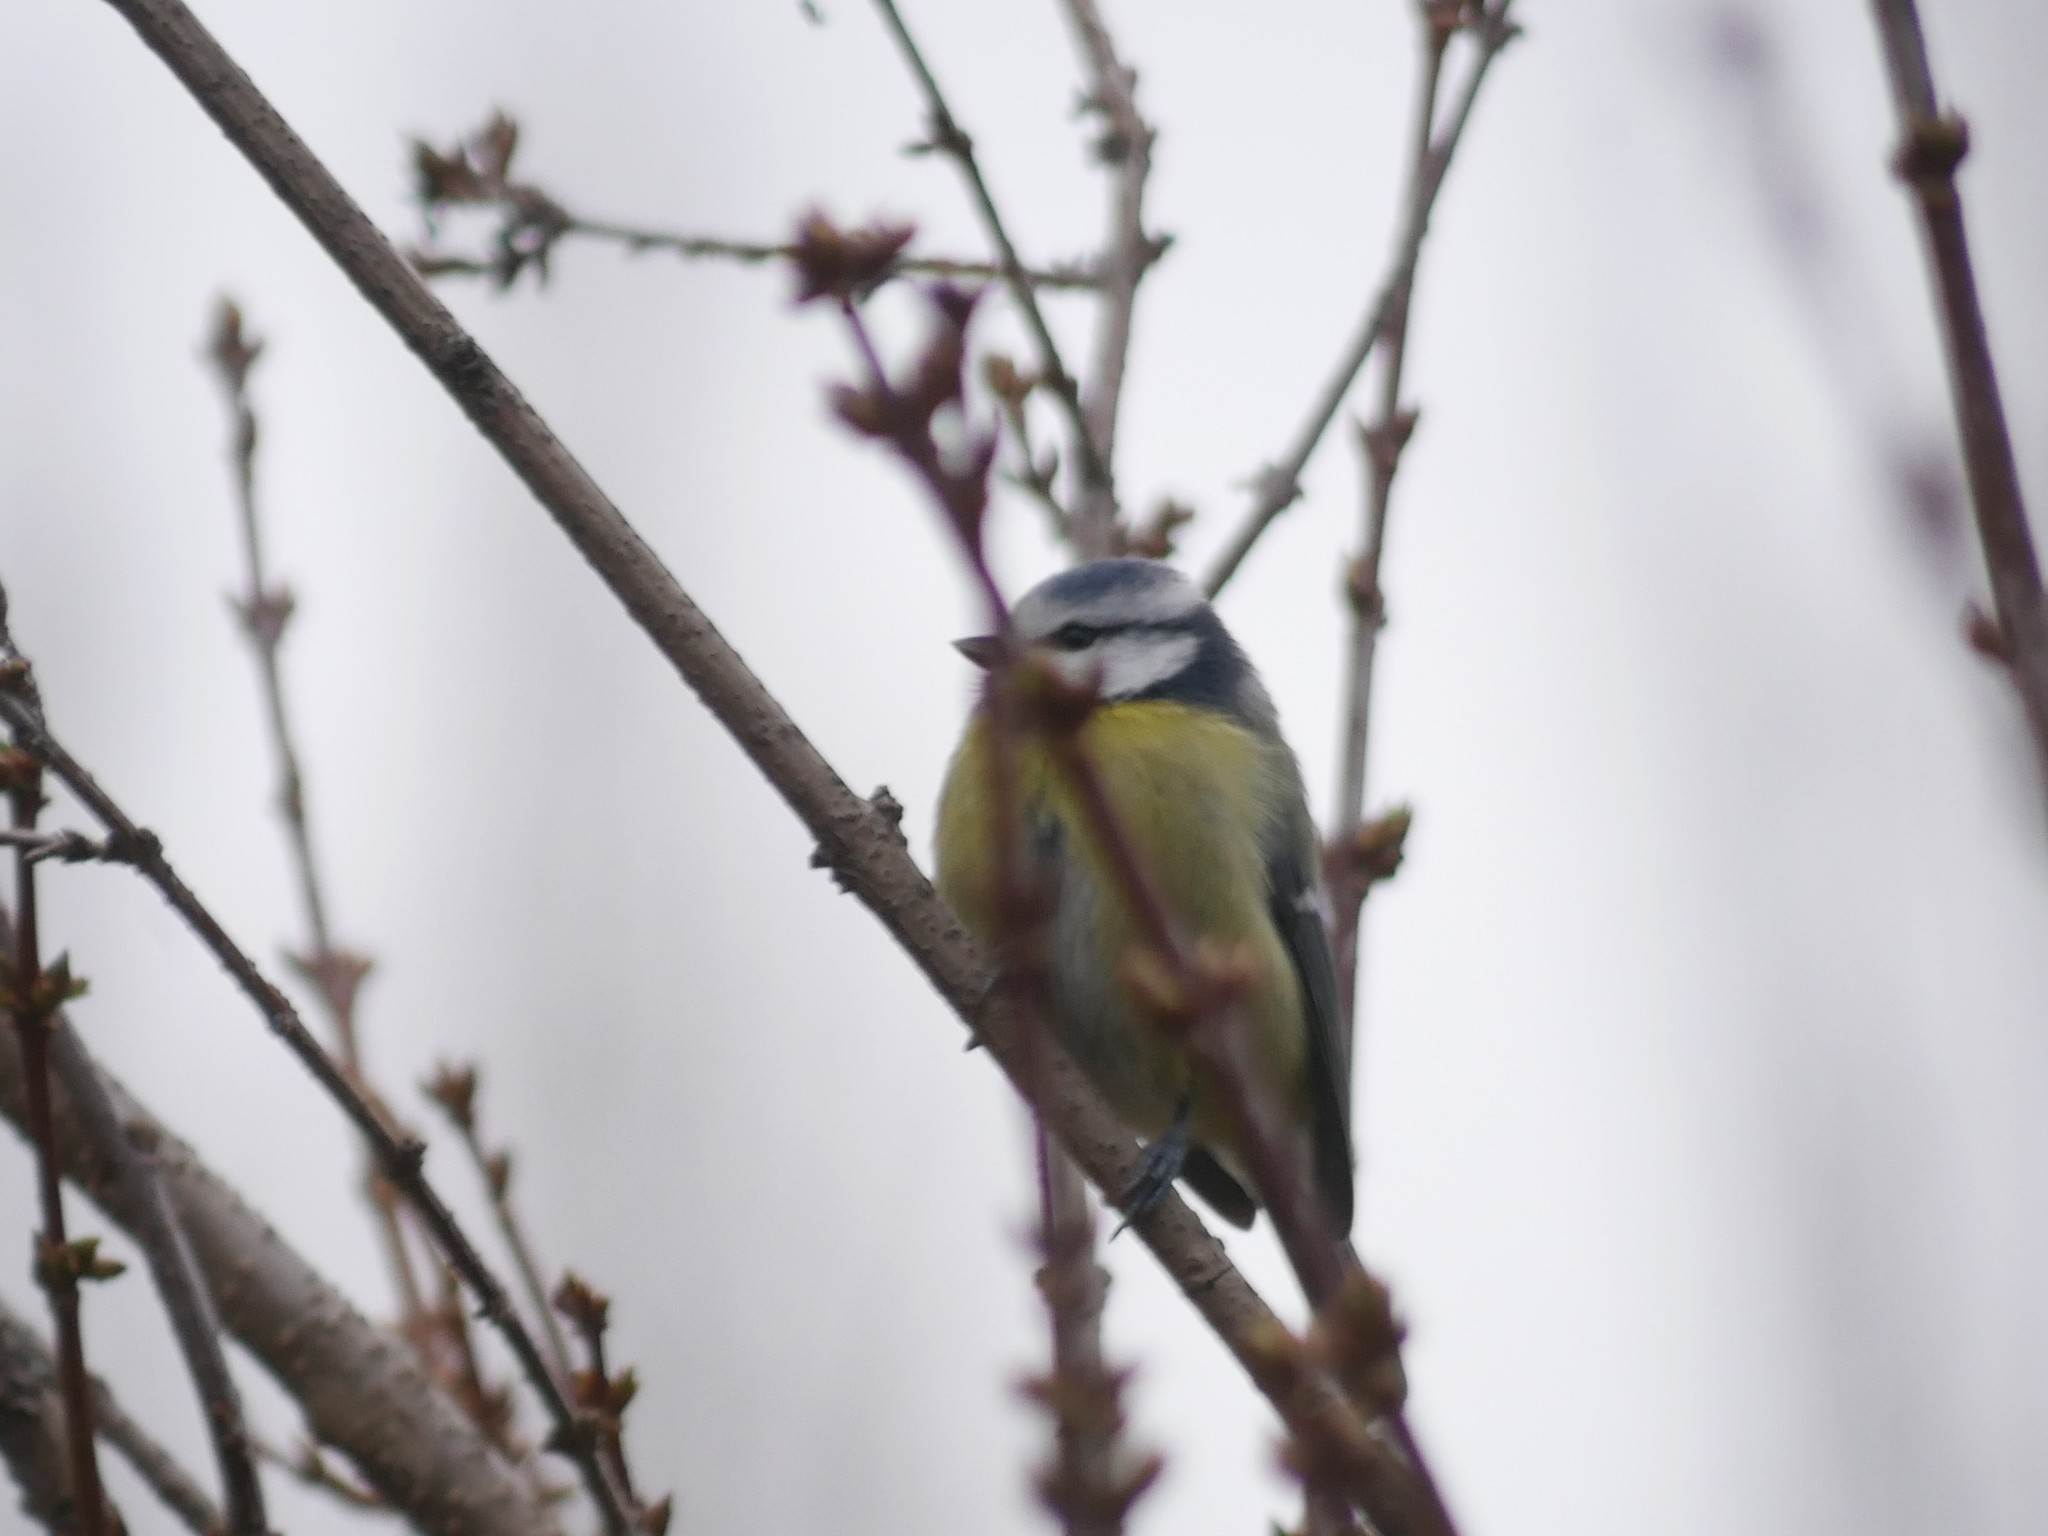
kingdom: Animalia
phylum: Chordata
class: Aves
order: Passeriformes
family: Paridae
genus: Cyanistes
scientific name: Cyanistes caeruleus
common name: Eurasian blue tit
